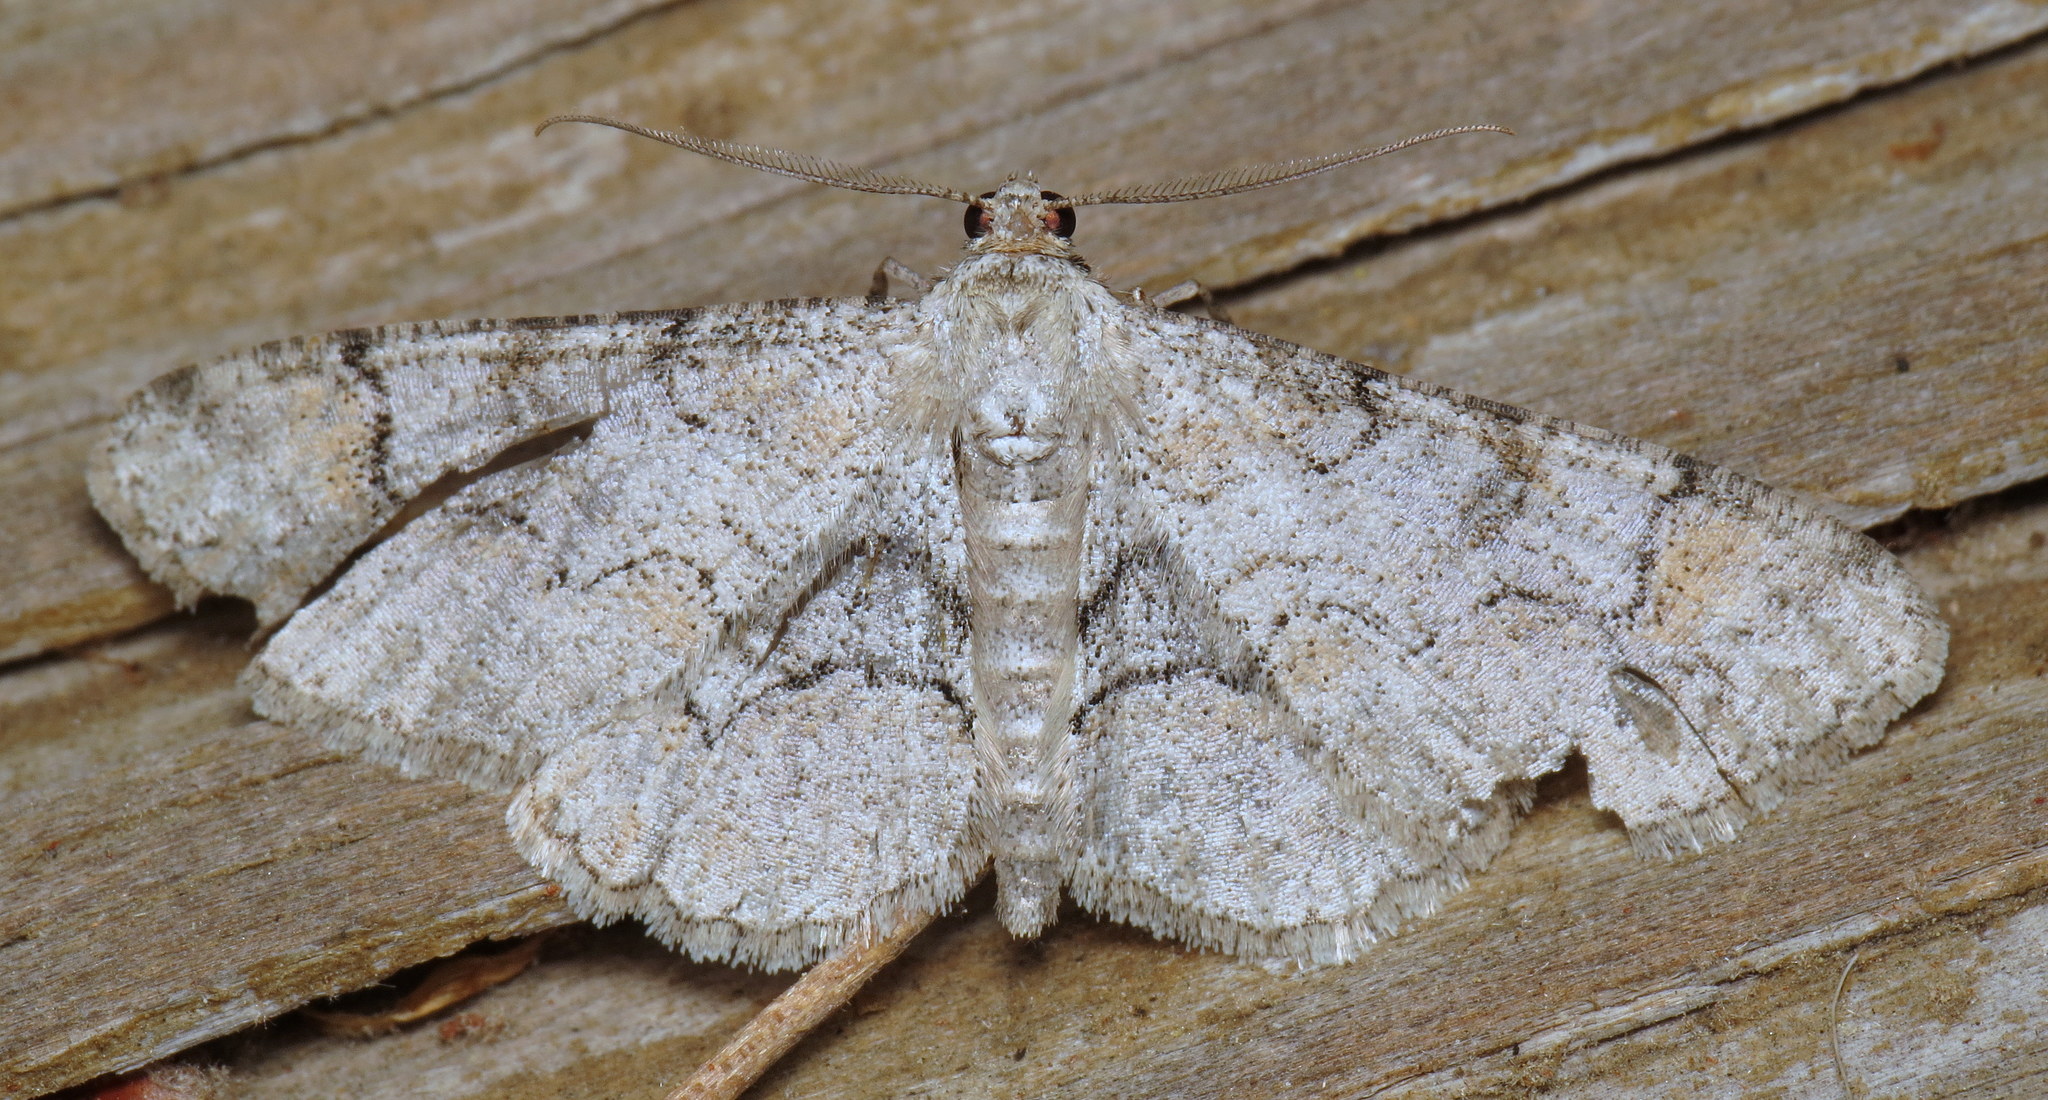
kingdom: Animalia
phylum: Arthropoda
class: Insecta
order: Lepidoptera
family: Geometridae
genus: Iridopsis
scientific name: Iridopsis larvaria
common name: Bent-line gray
